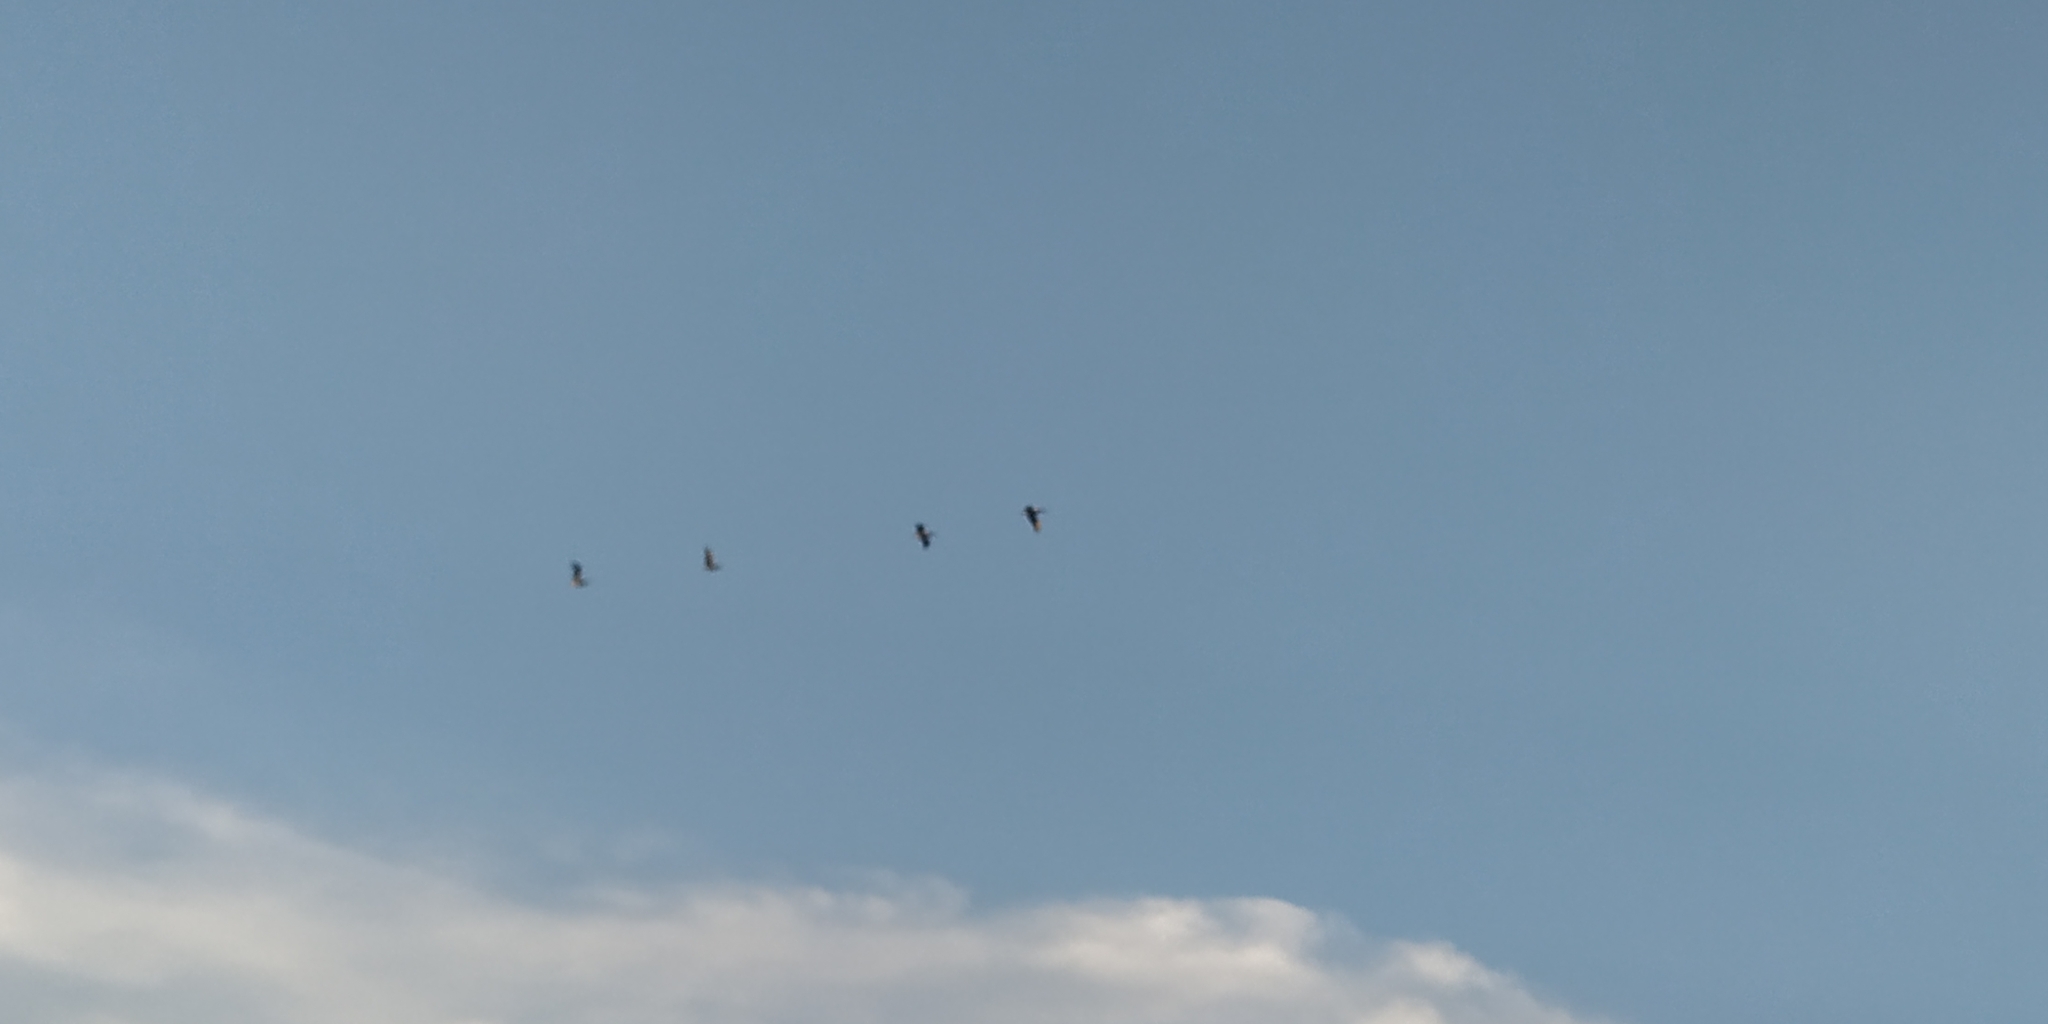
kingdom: Animalia
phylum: Chordata
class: Aves
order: Pelecaniformes
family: Pelecanidae
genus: Pelecanus
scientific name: Pelecanus occidentalis
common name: Brown pelican
